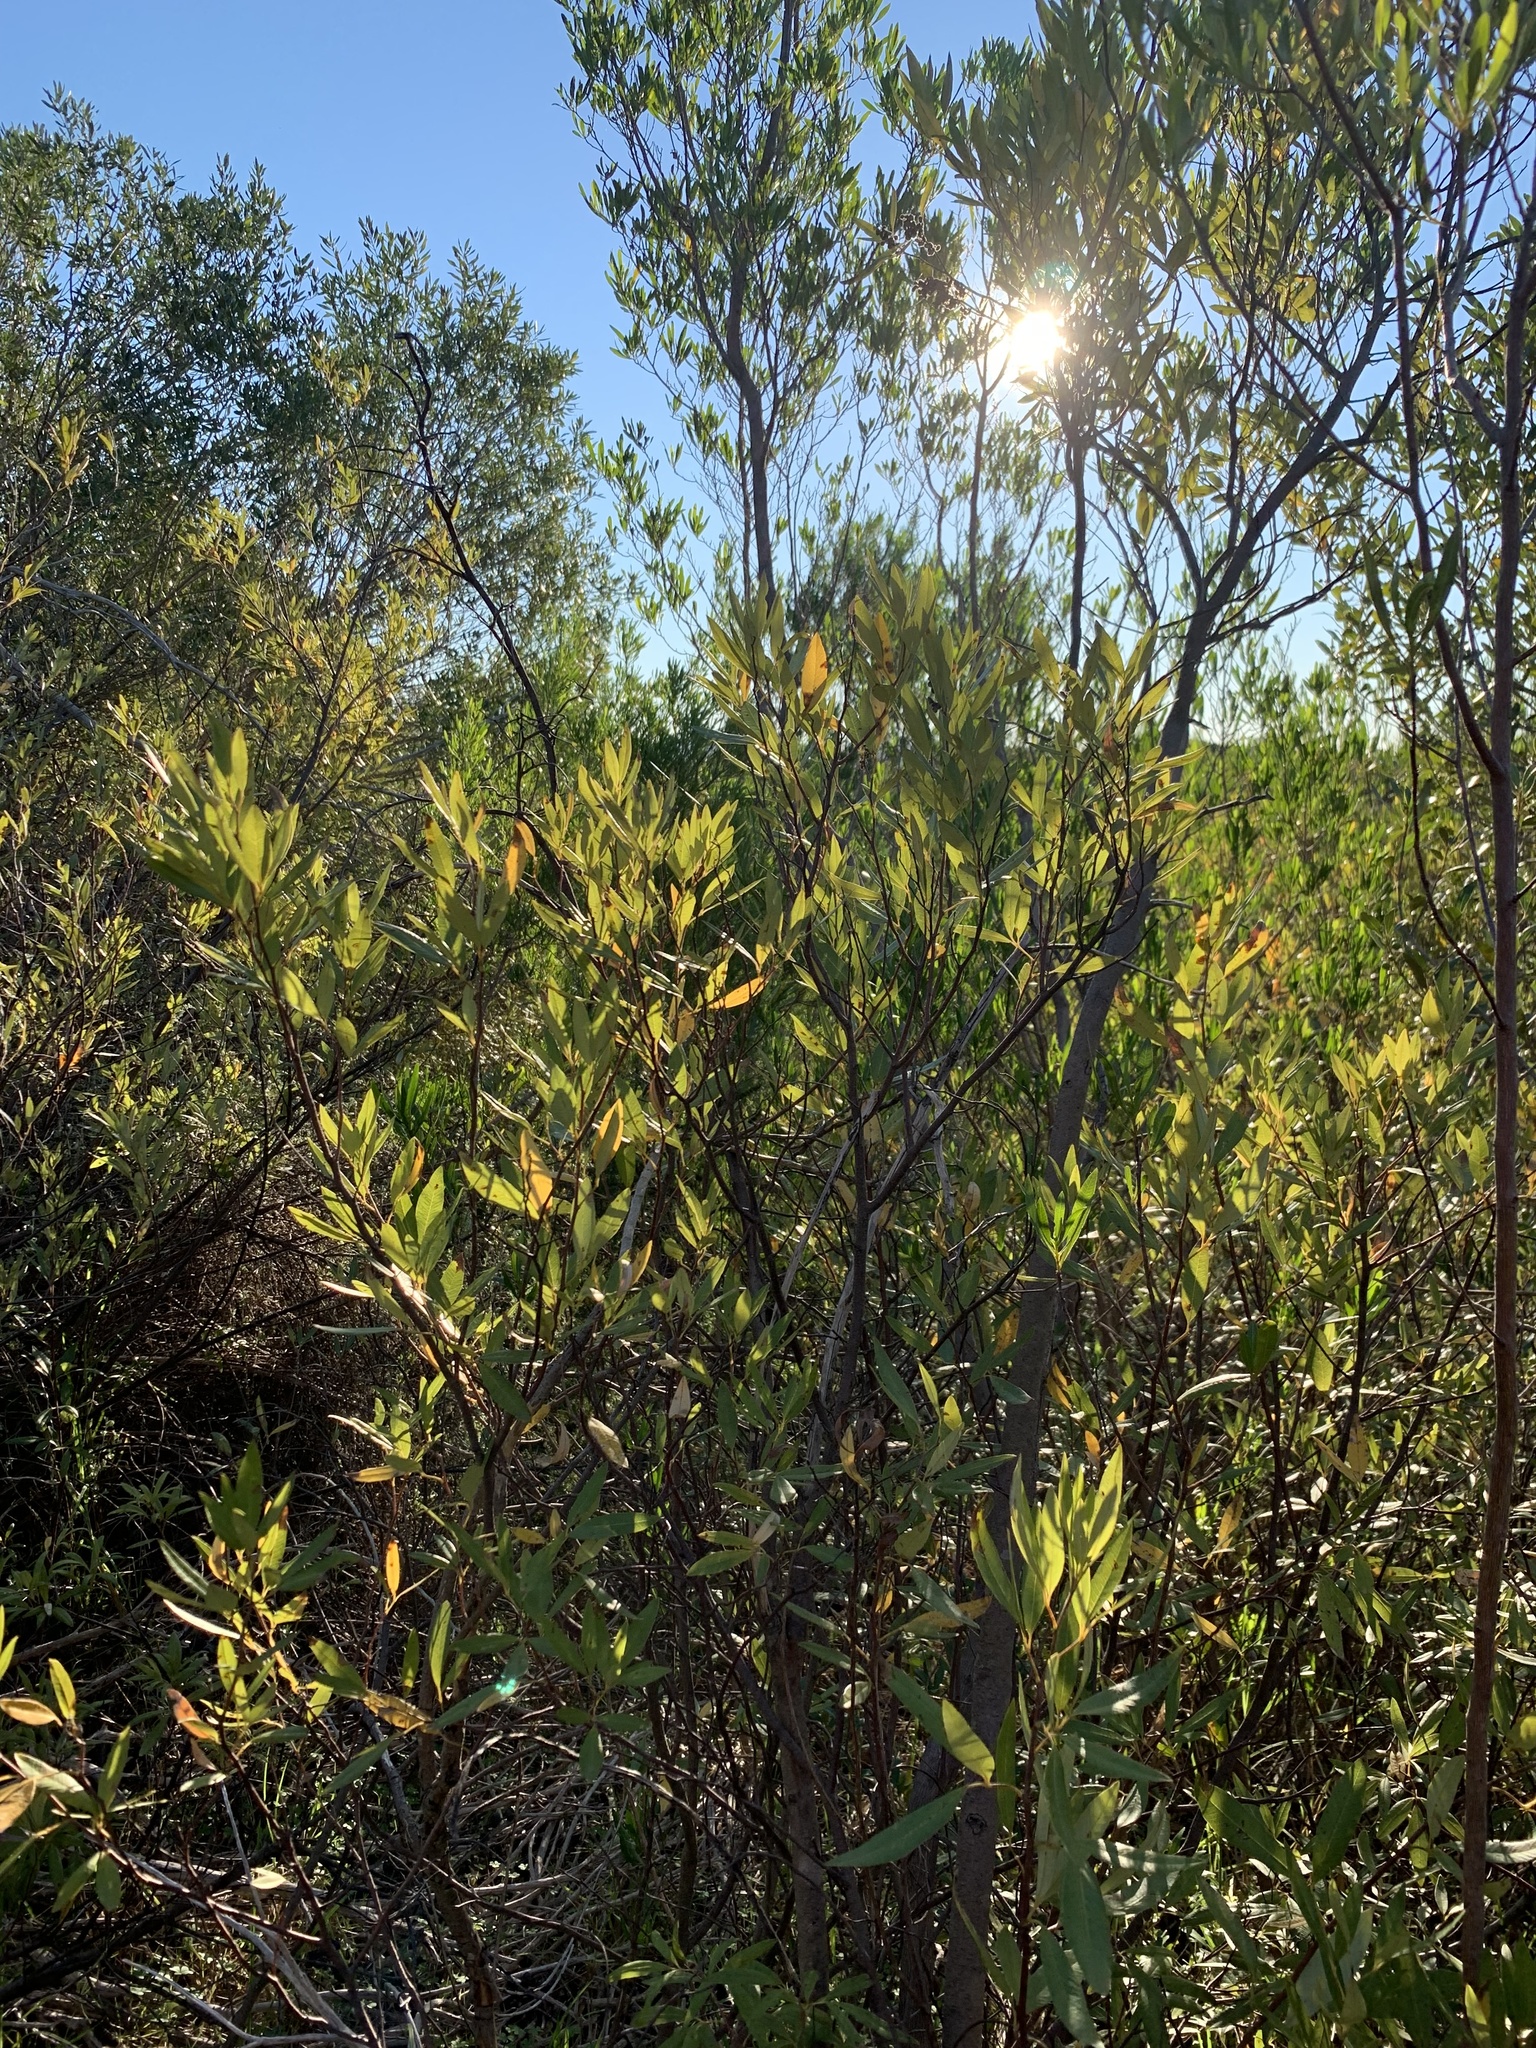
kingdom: Plantae
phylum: Tracheophyta
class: Magnoliopsida
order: Sapindales
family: Anacardiaceae
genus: Searsia
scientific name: Searsia angustifolia
